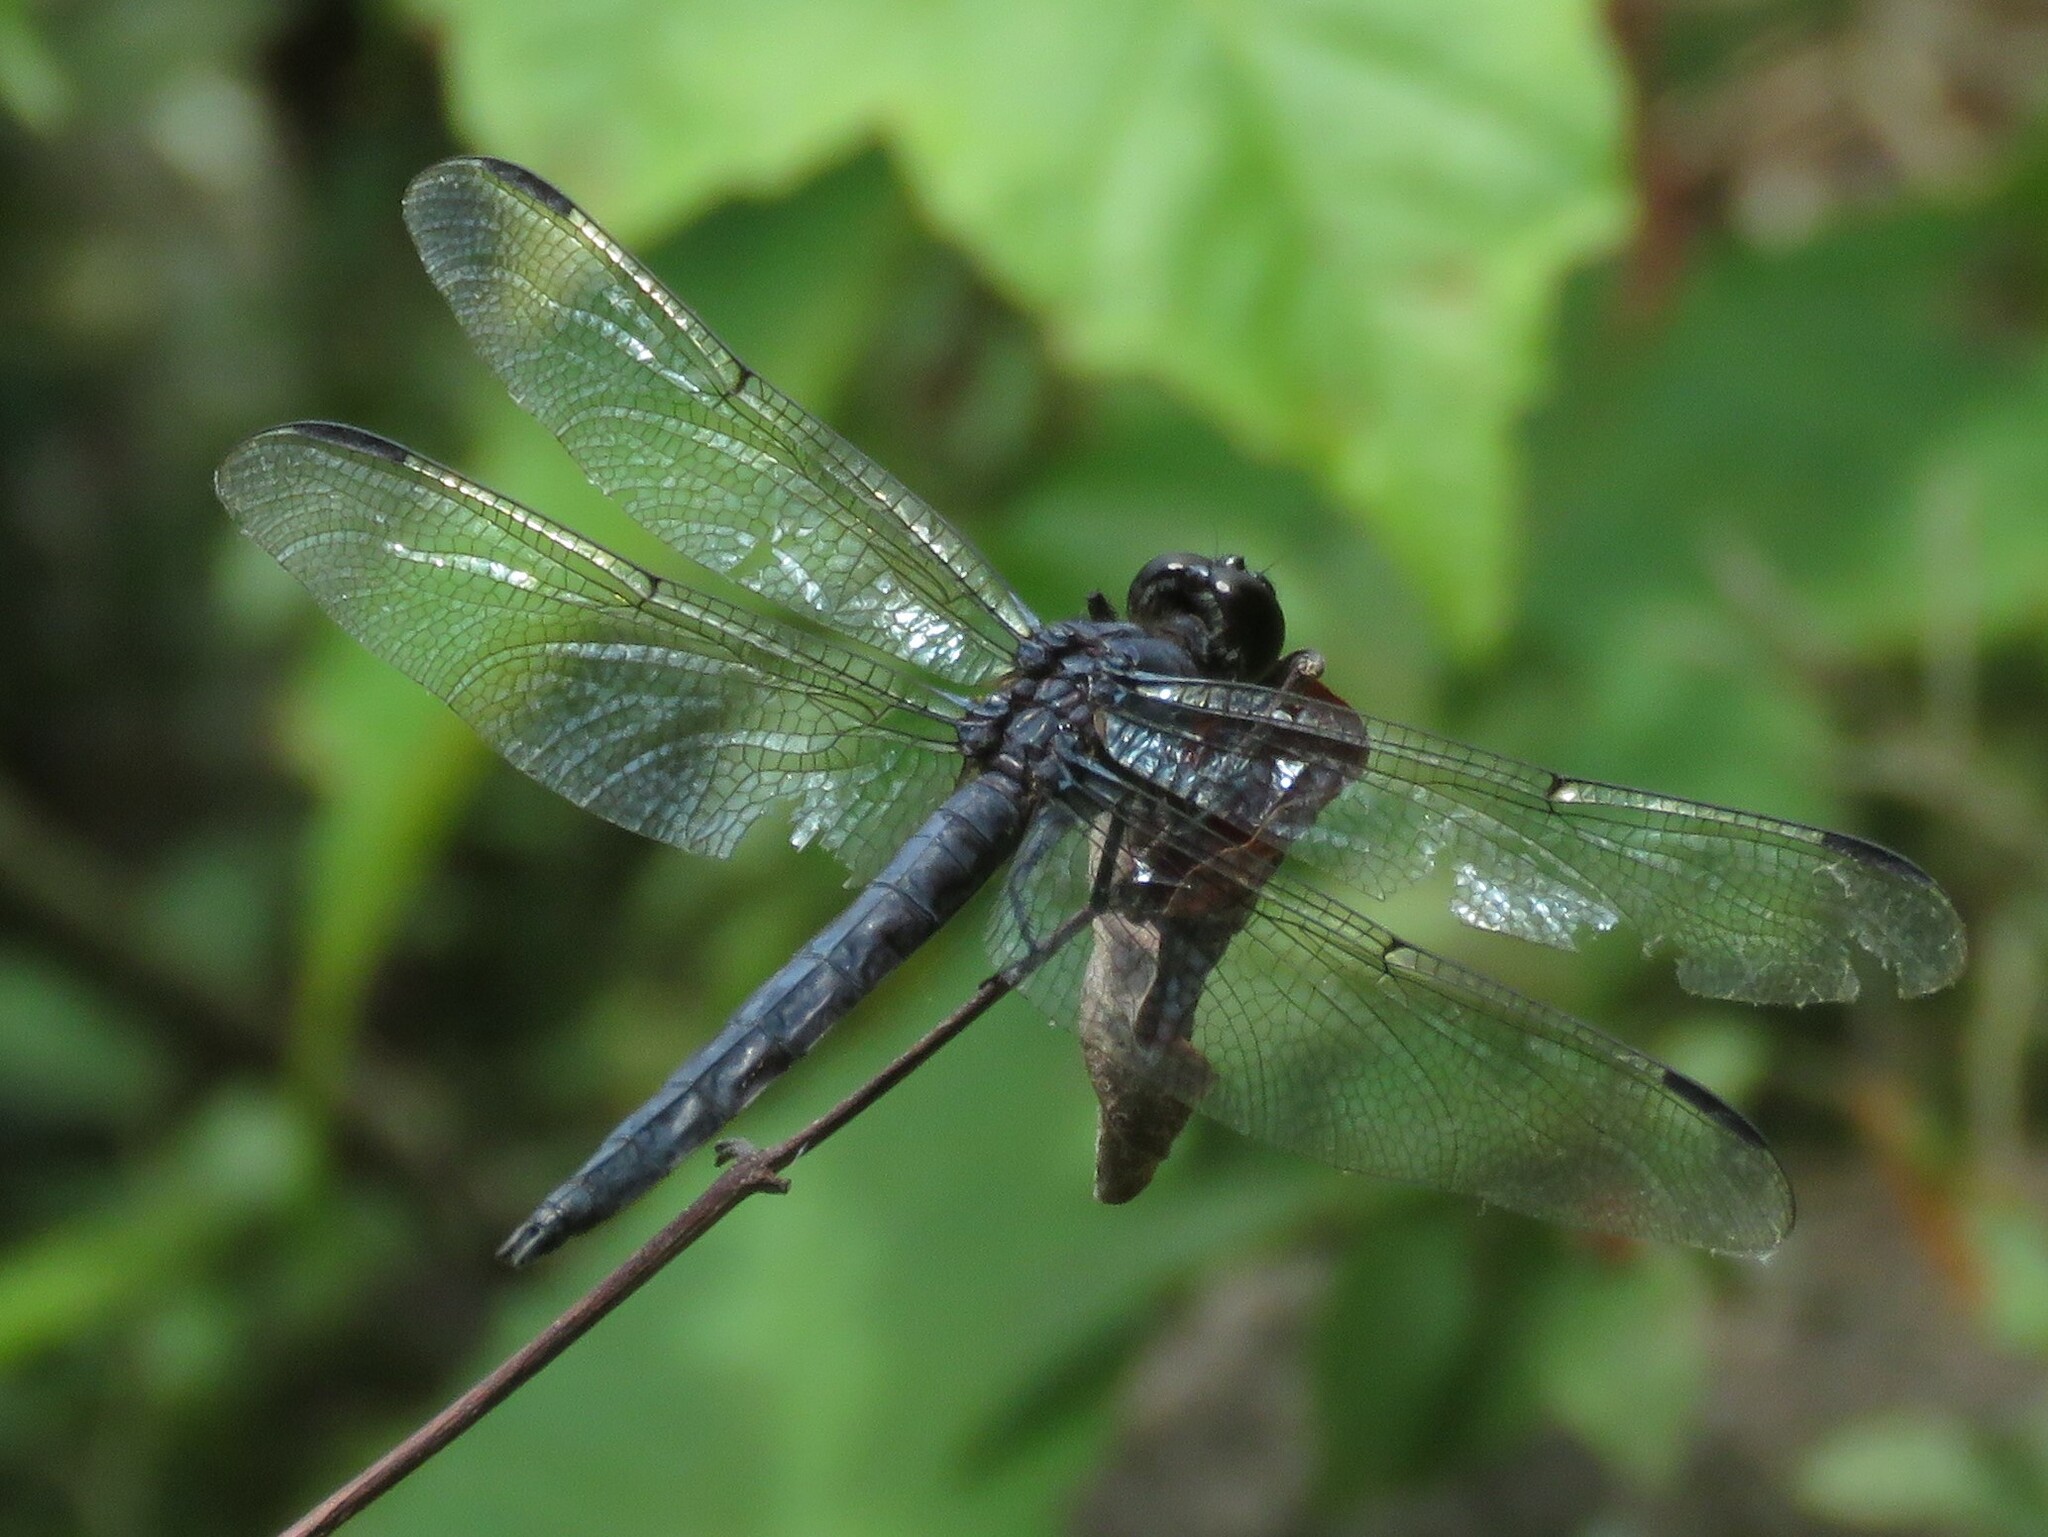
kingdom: Animalia
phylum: Arthropoda
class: Insecta
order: Odonata
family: Libellulidae
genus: Libellula
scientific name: Libellula incesta
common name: Slaty skimmer
